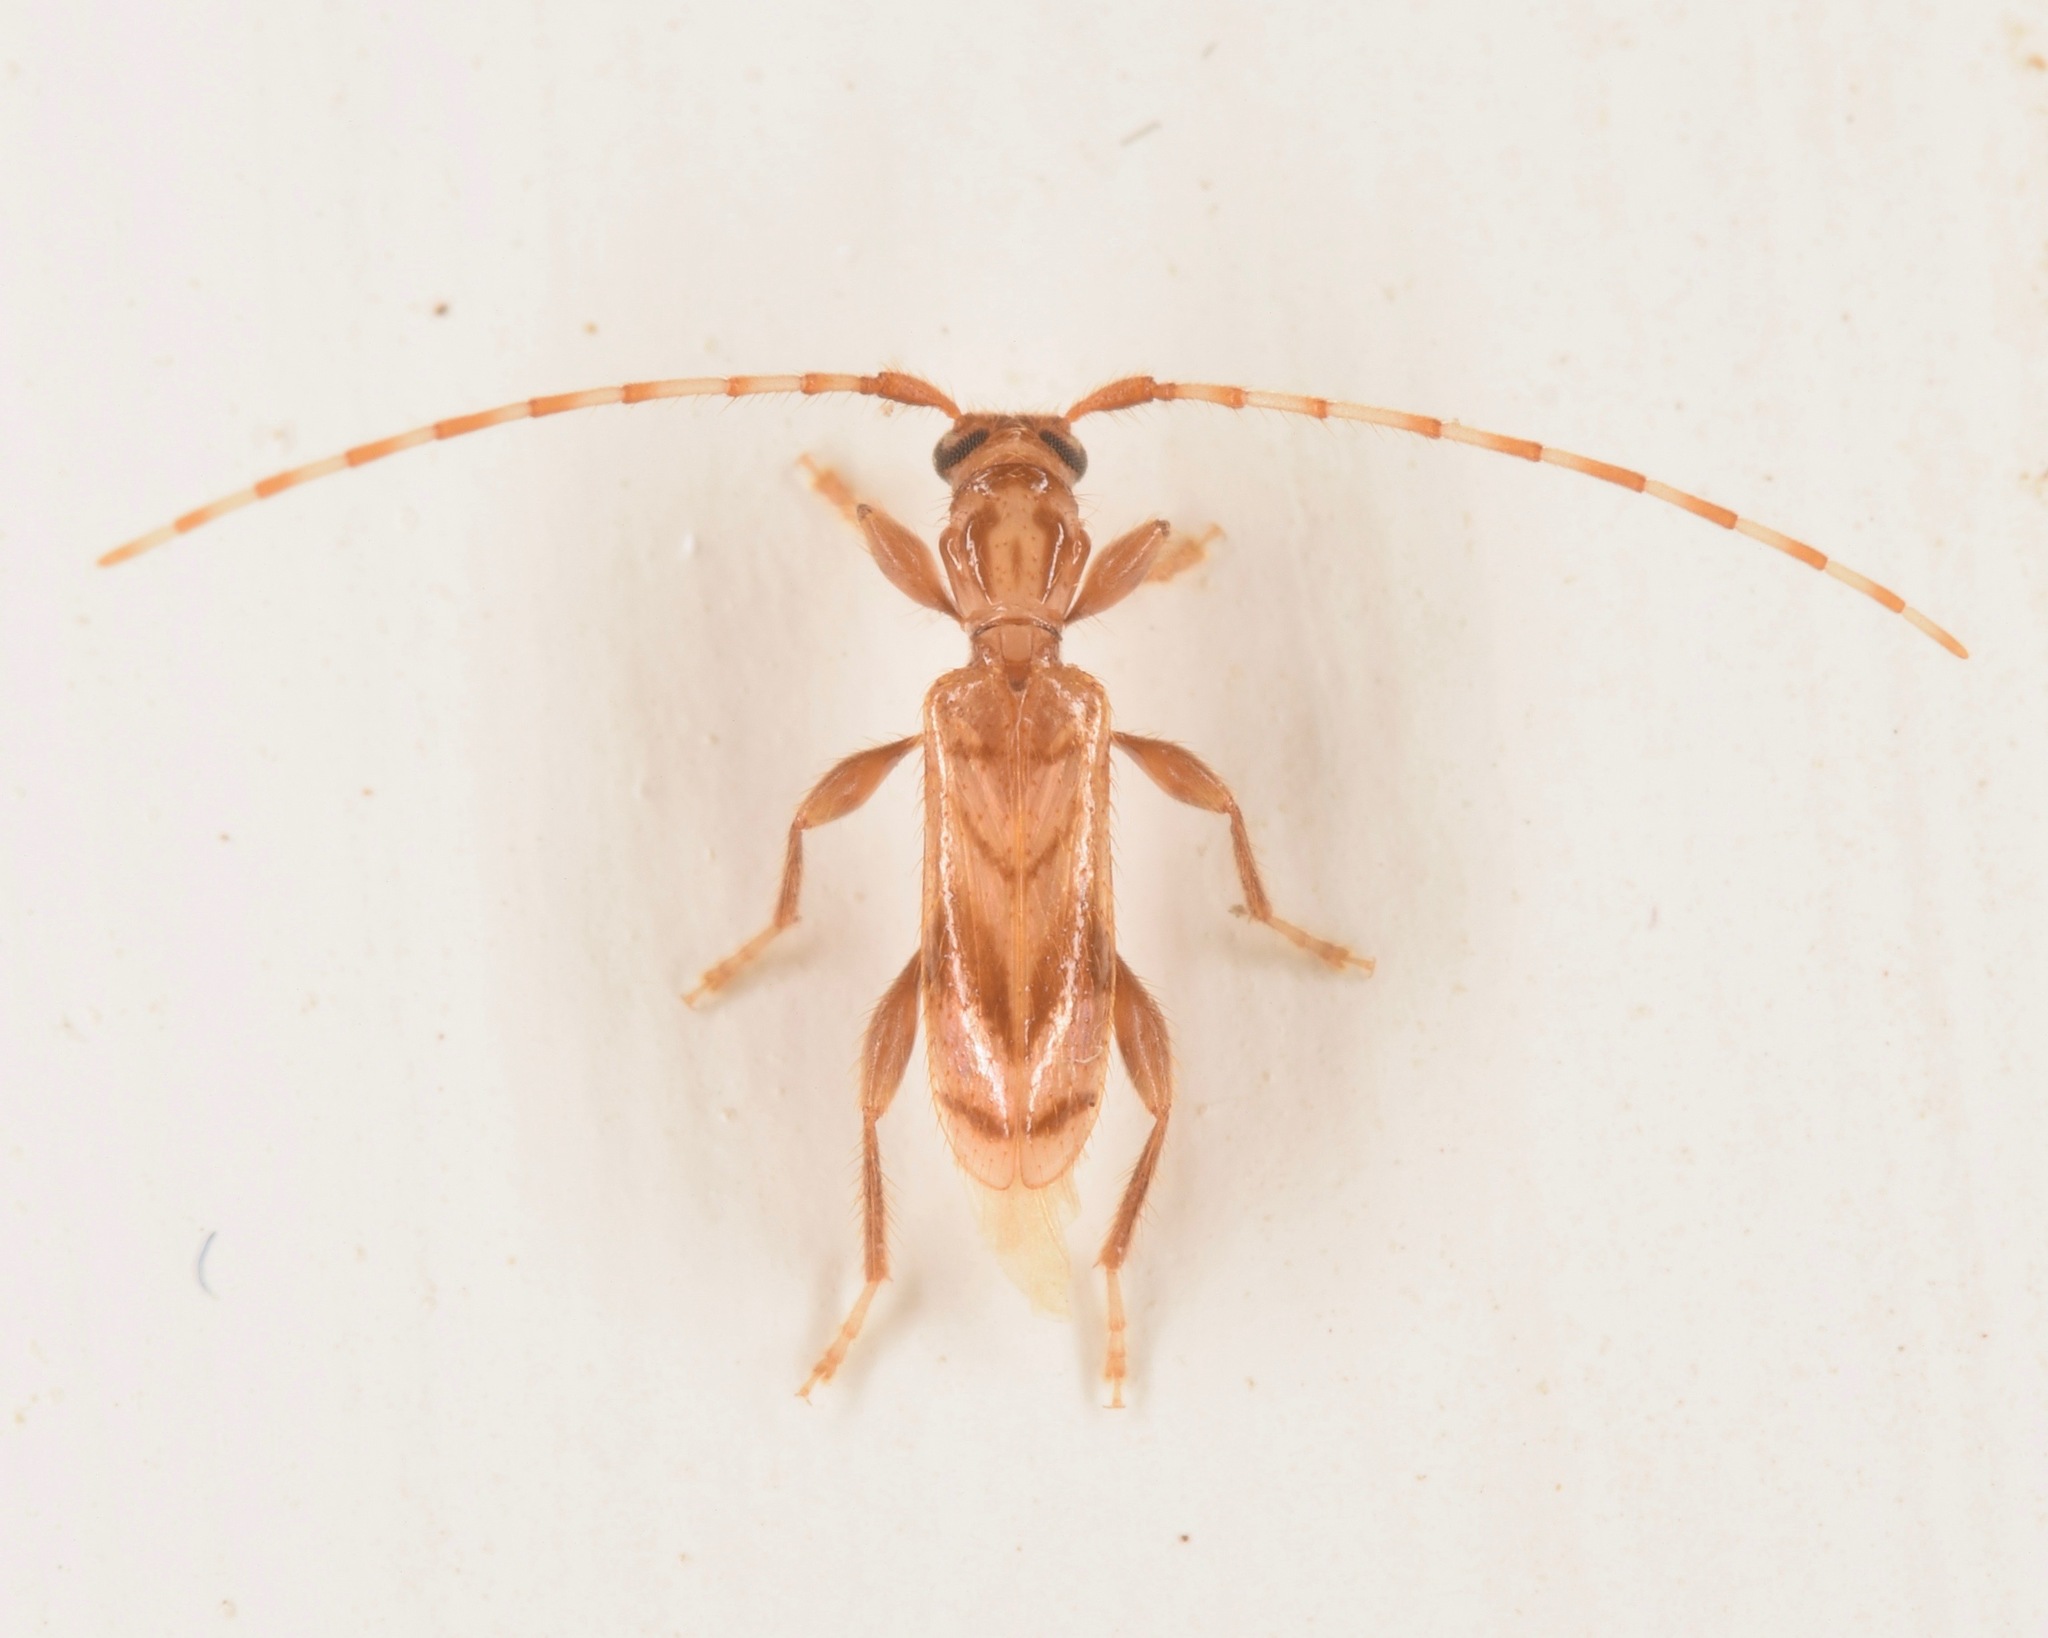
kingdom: Animalia
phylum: Arthropoda
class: Insecta
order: Coleoptera
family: Cerambycidae
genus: Obrium
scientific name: Obrium maculatum
